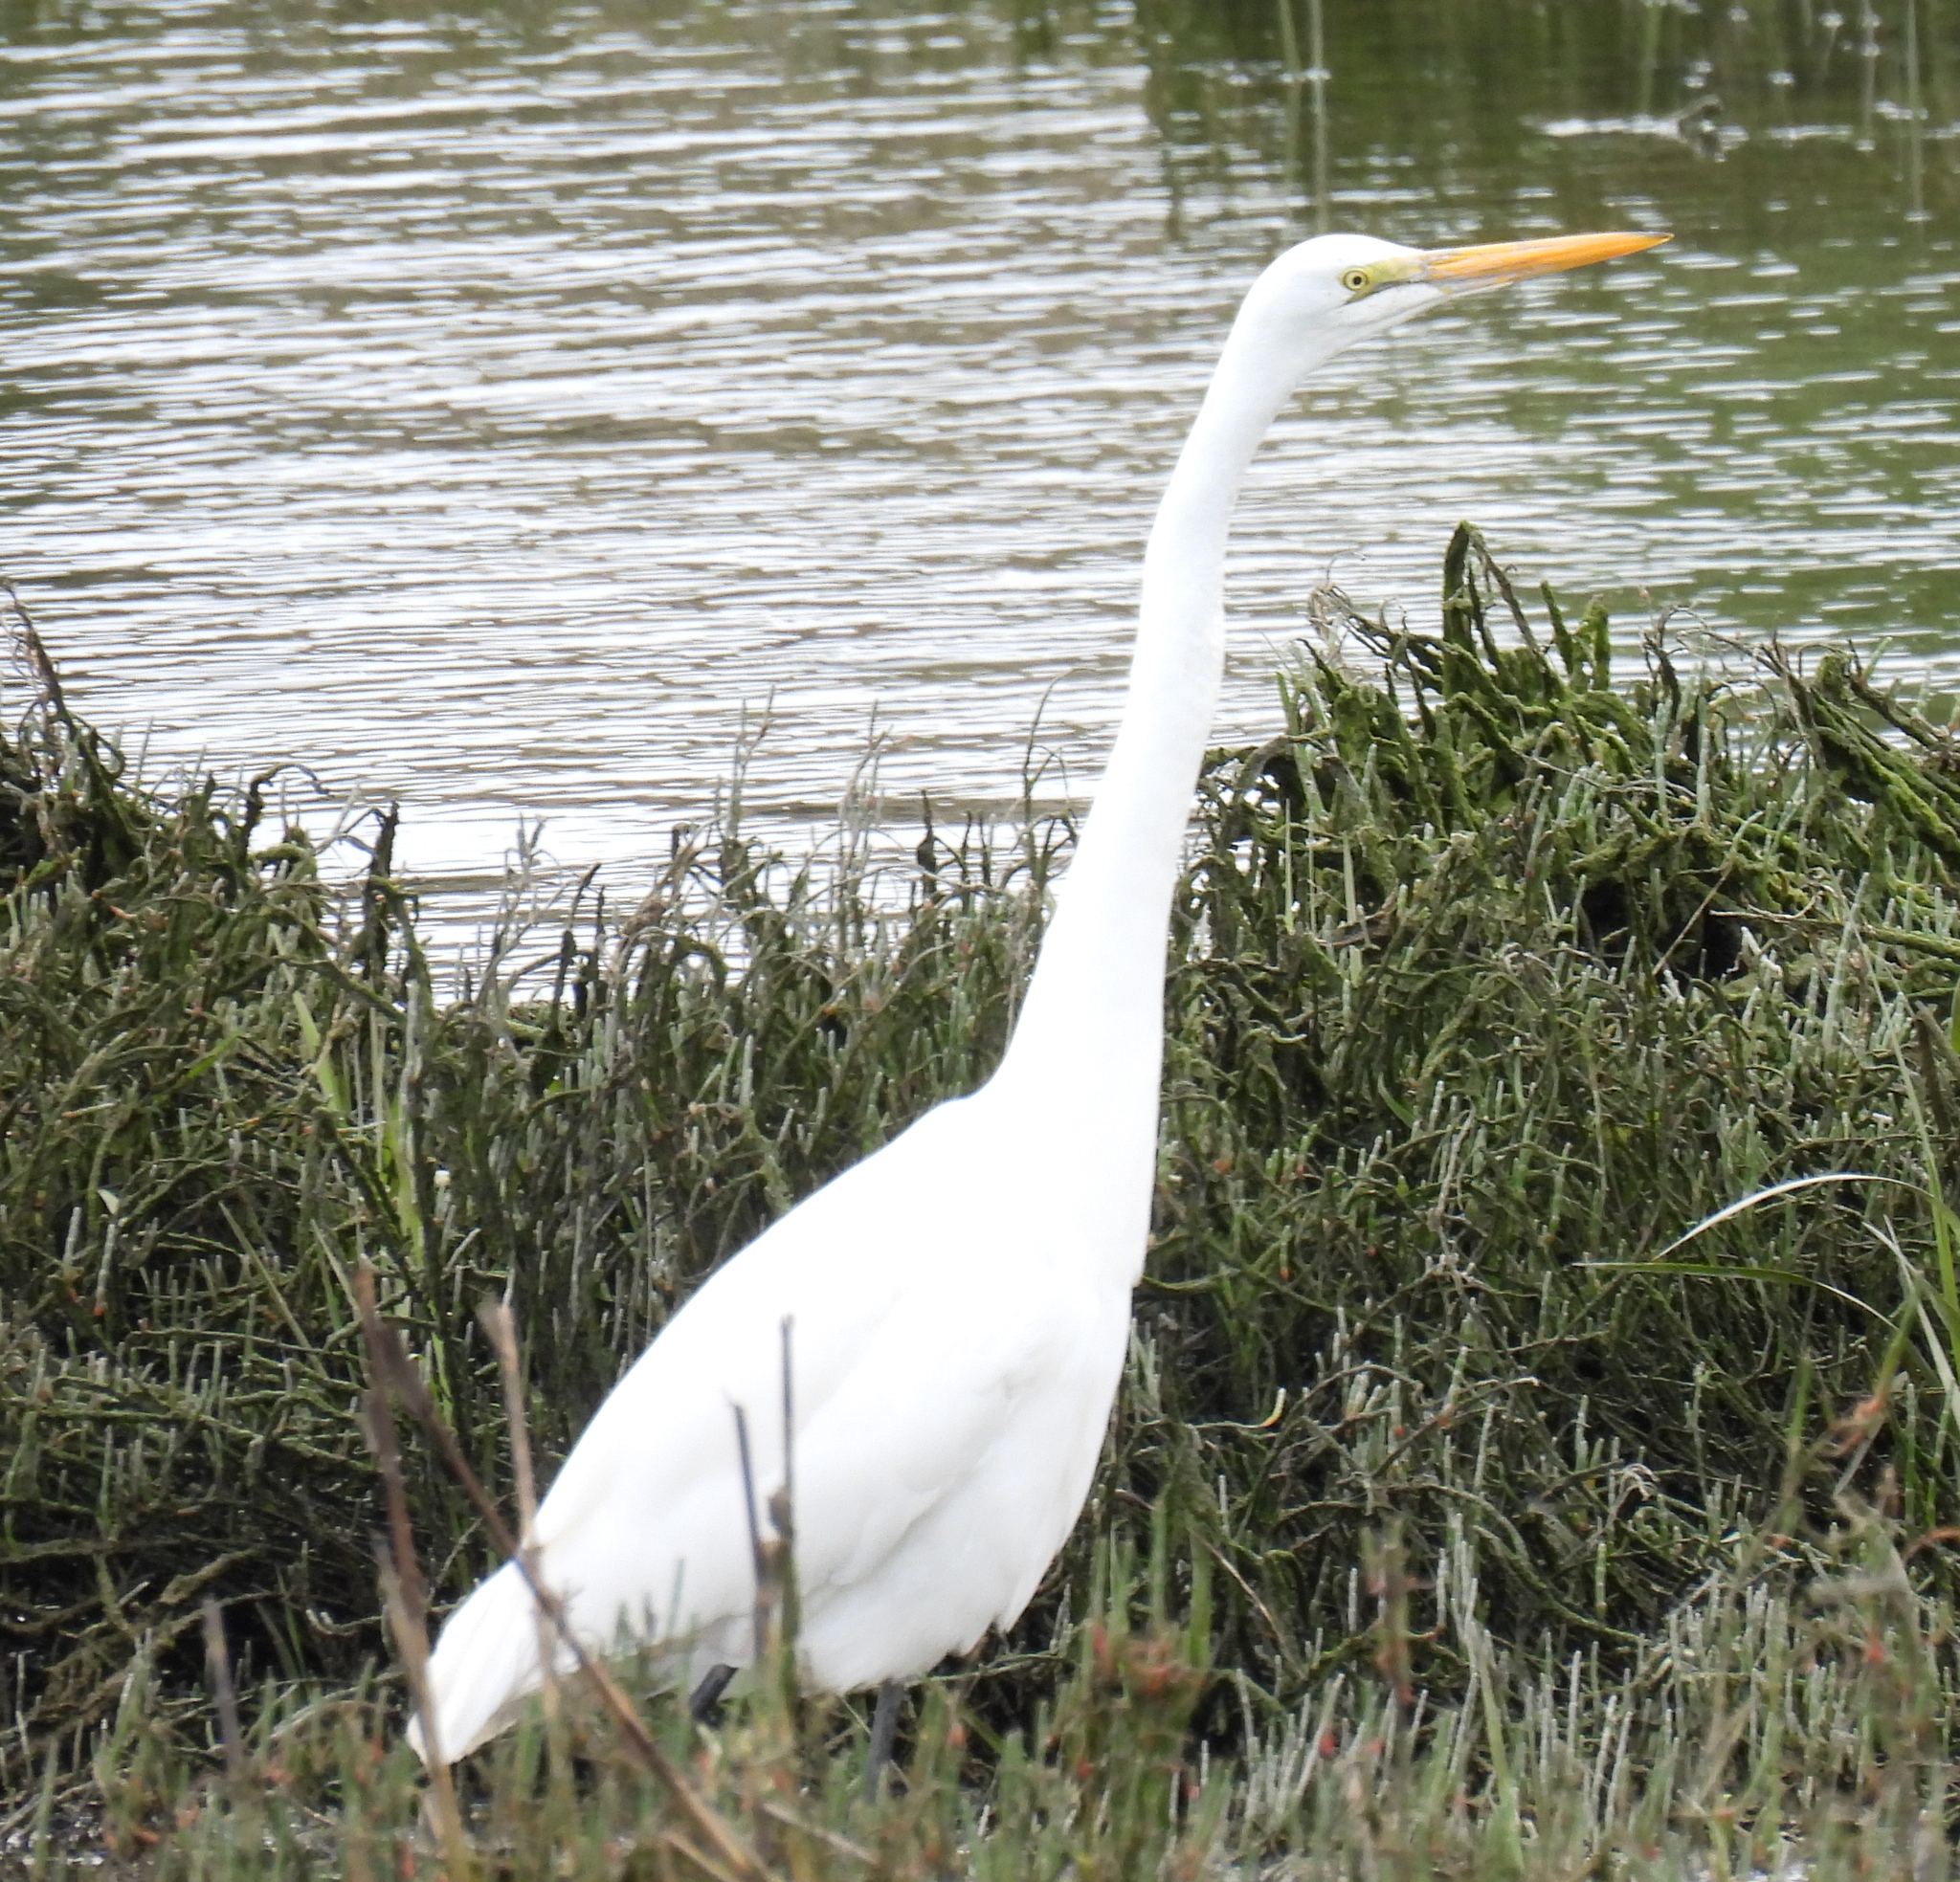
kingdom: Animalia
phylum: Chordata
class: Aves
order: Pelecaniformes
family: Ardeidae
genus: Ardea
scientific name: Ardea alba
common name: Great egret
